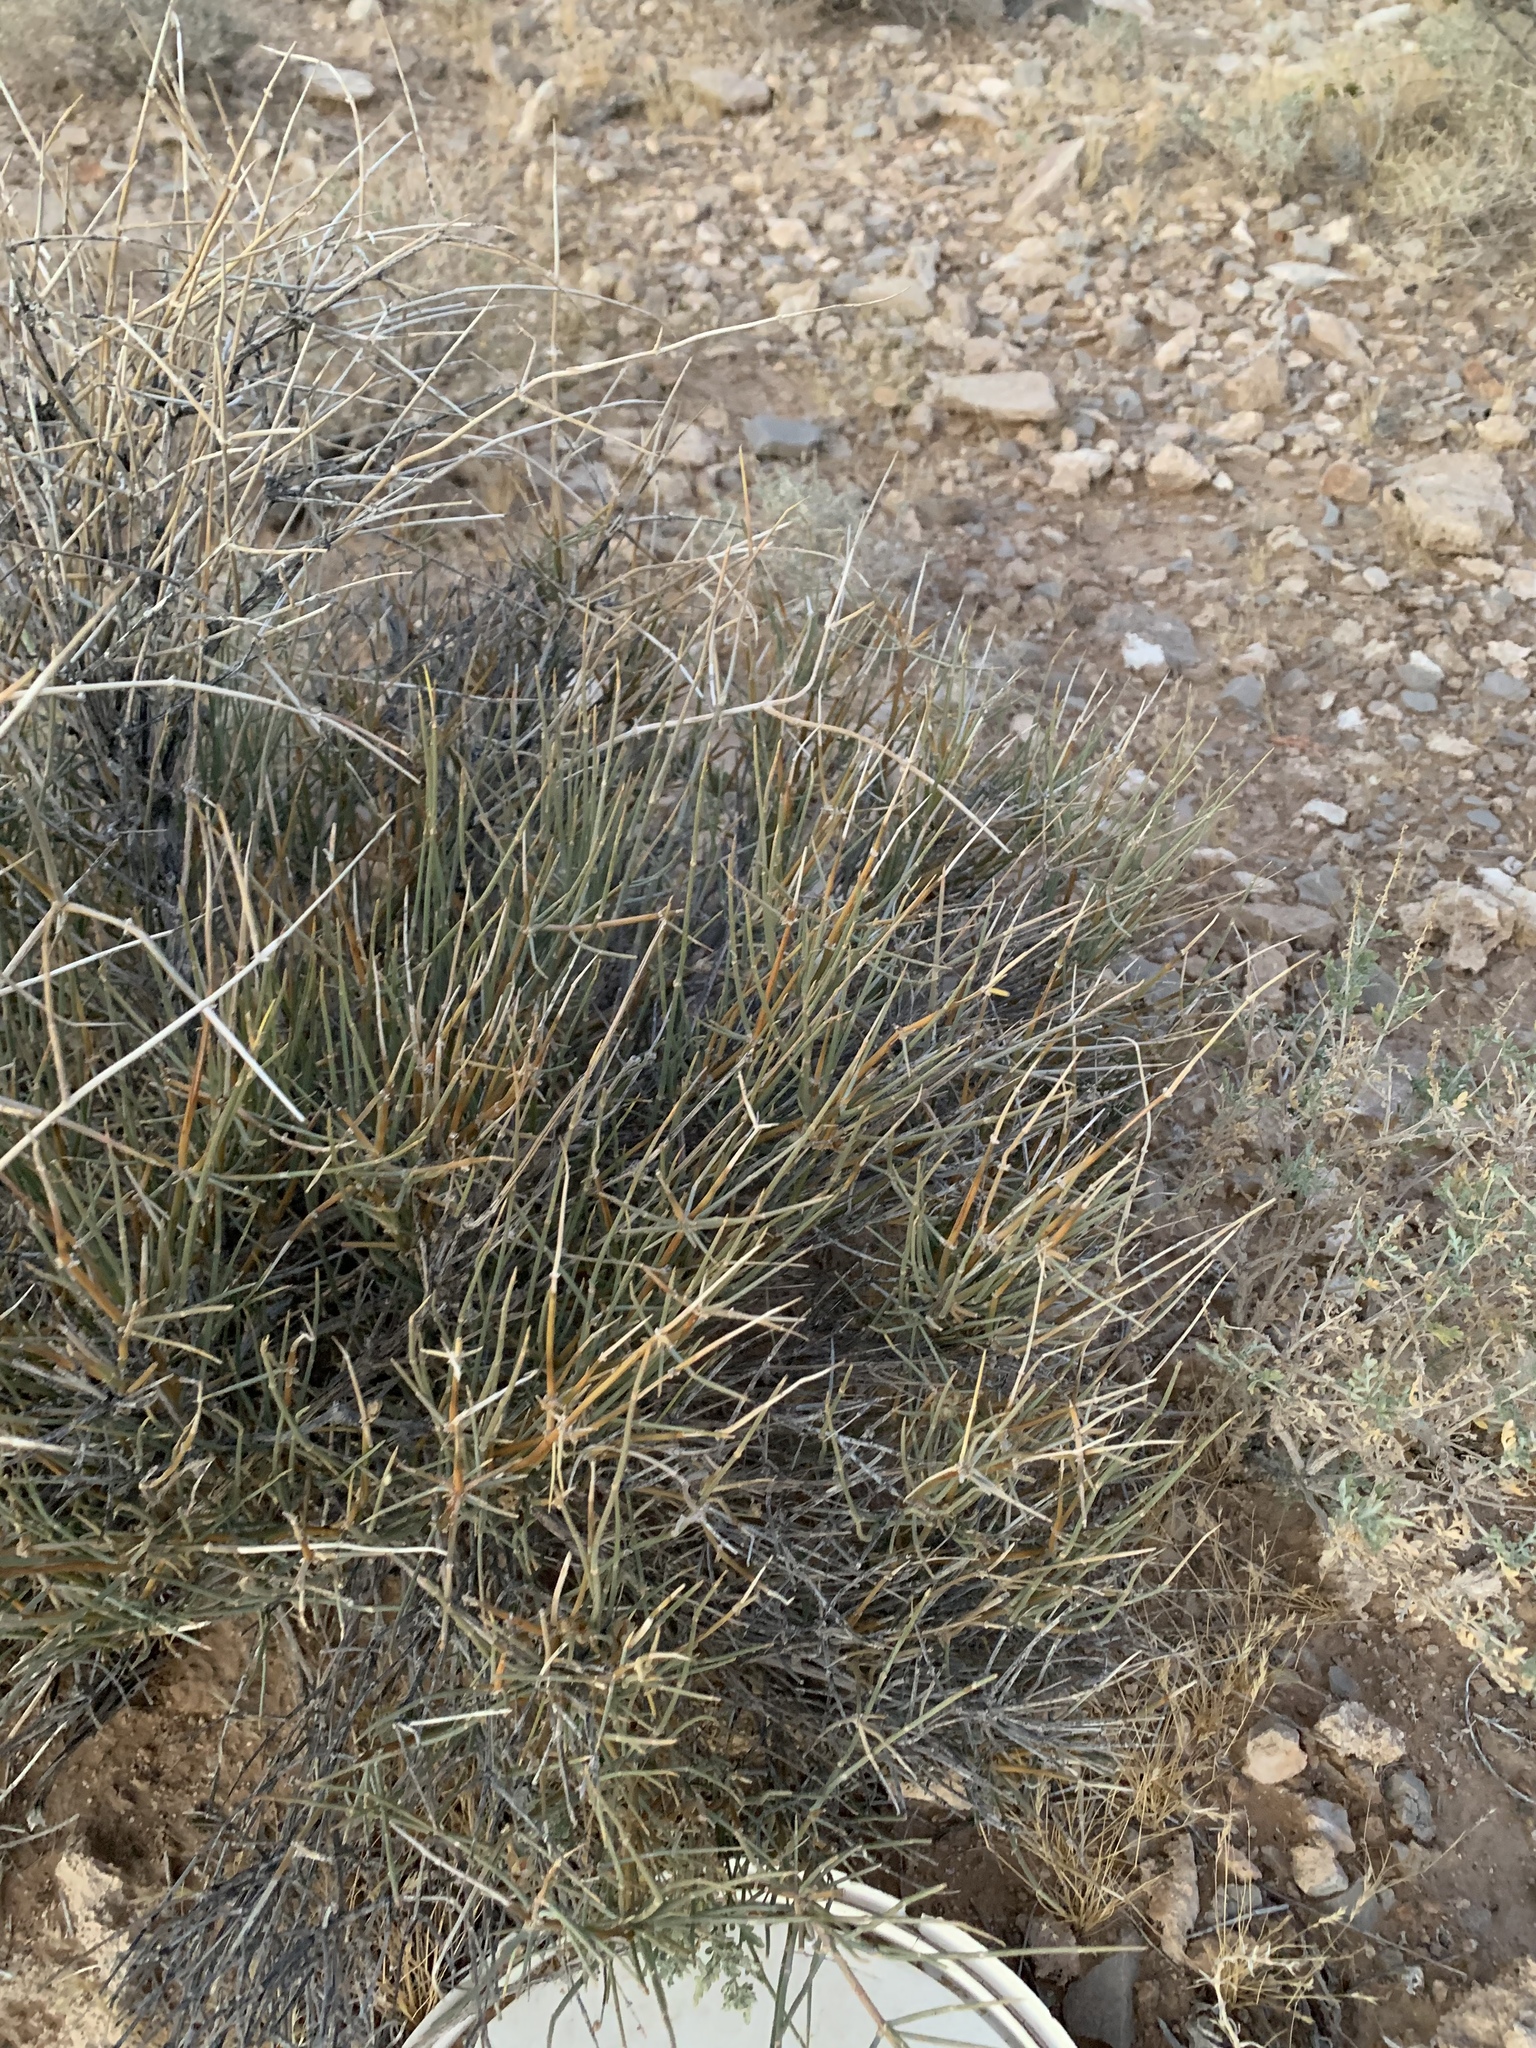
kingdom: Plantae
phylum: Tracheophyta
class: Gnetopsida
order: Ephedrales
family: Ephedraceae
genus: Ephedra
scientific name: Ephedra nevadensis
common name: Gray ephedra
